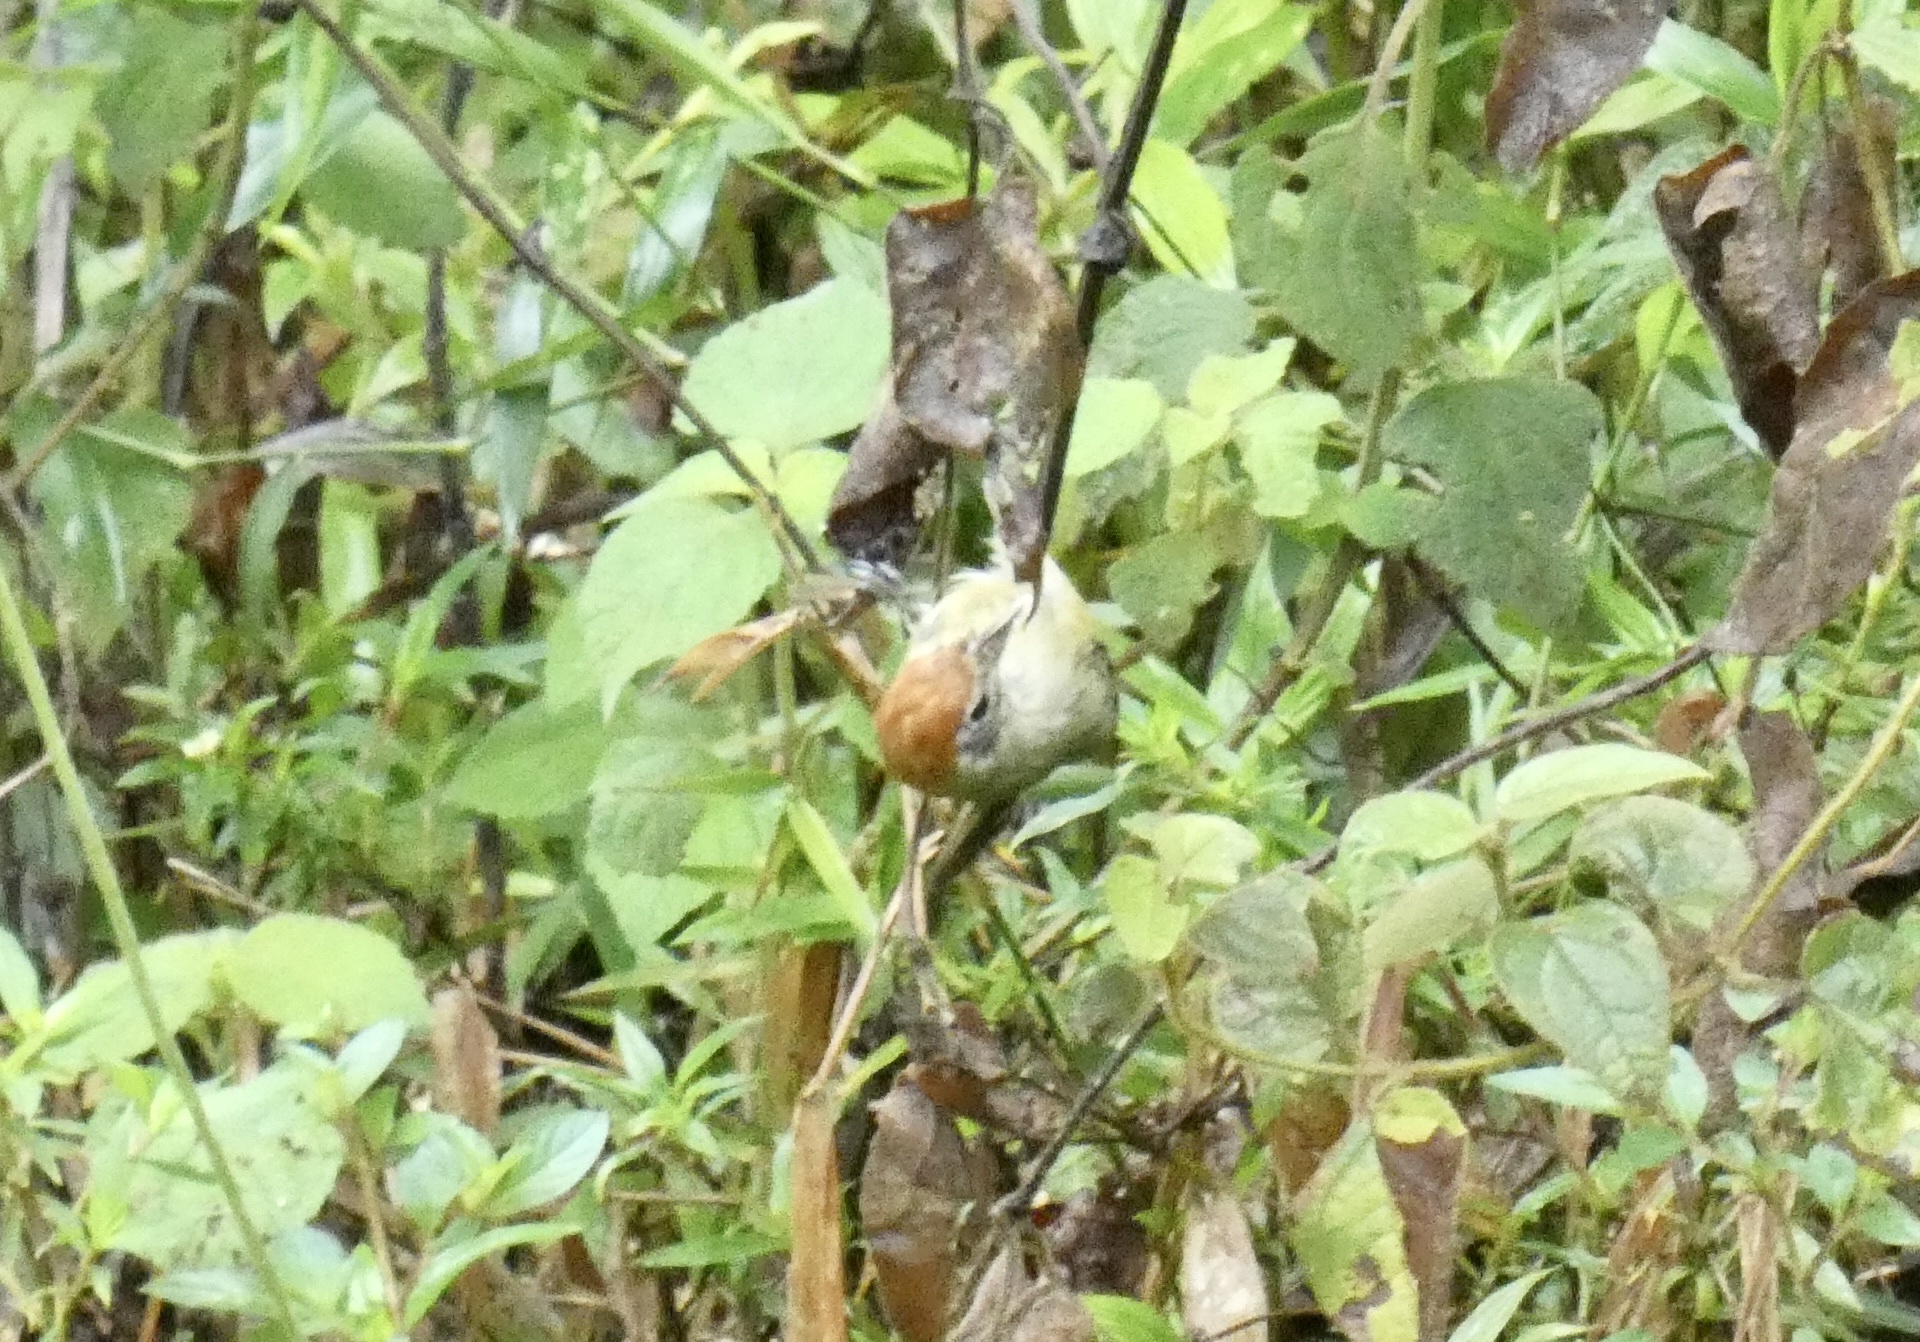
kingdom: Animalia
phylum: Chordata
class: Aves
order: Passeriformes
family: Vireonidae
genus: Hylophilus
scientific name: Hylophilus poicilotis
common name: Rufous-crowned greenlet
